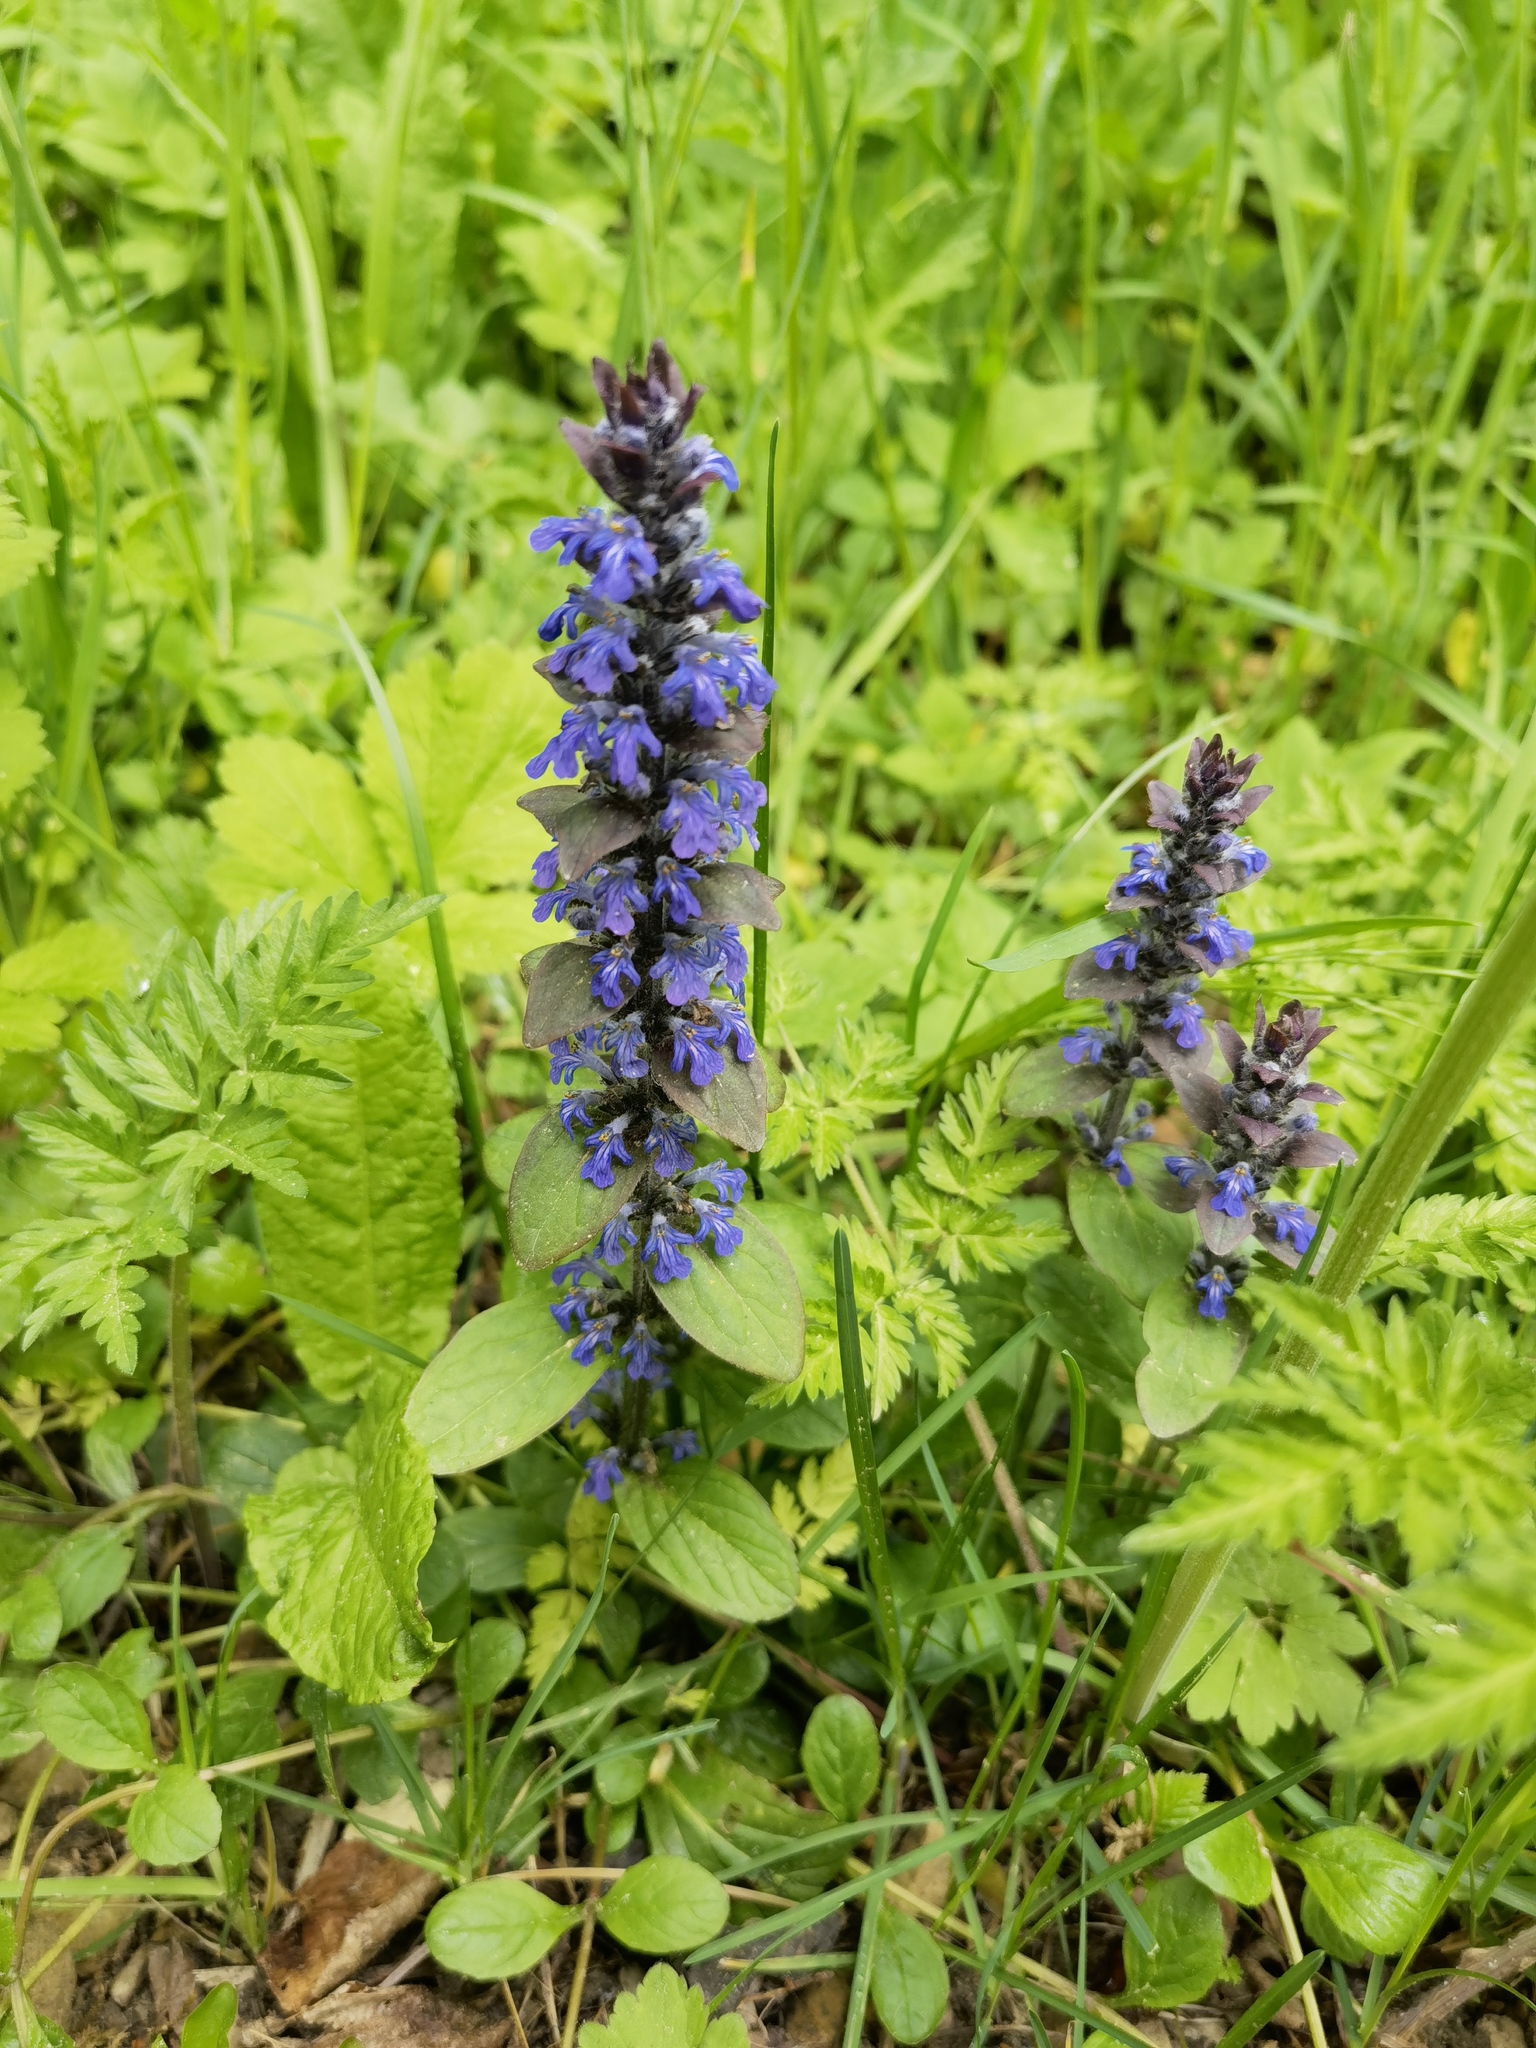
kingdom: Plantae
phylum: Tracheophyta
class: Magnoliopsida
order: Lamiales
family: Lamiaceae
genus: Ajuga
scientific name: Ajuga reptans
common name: Bugle
